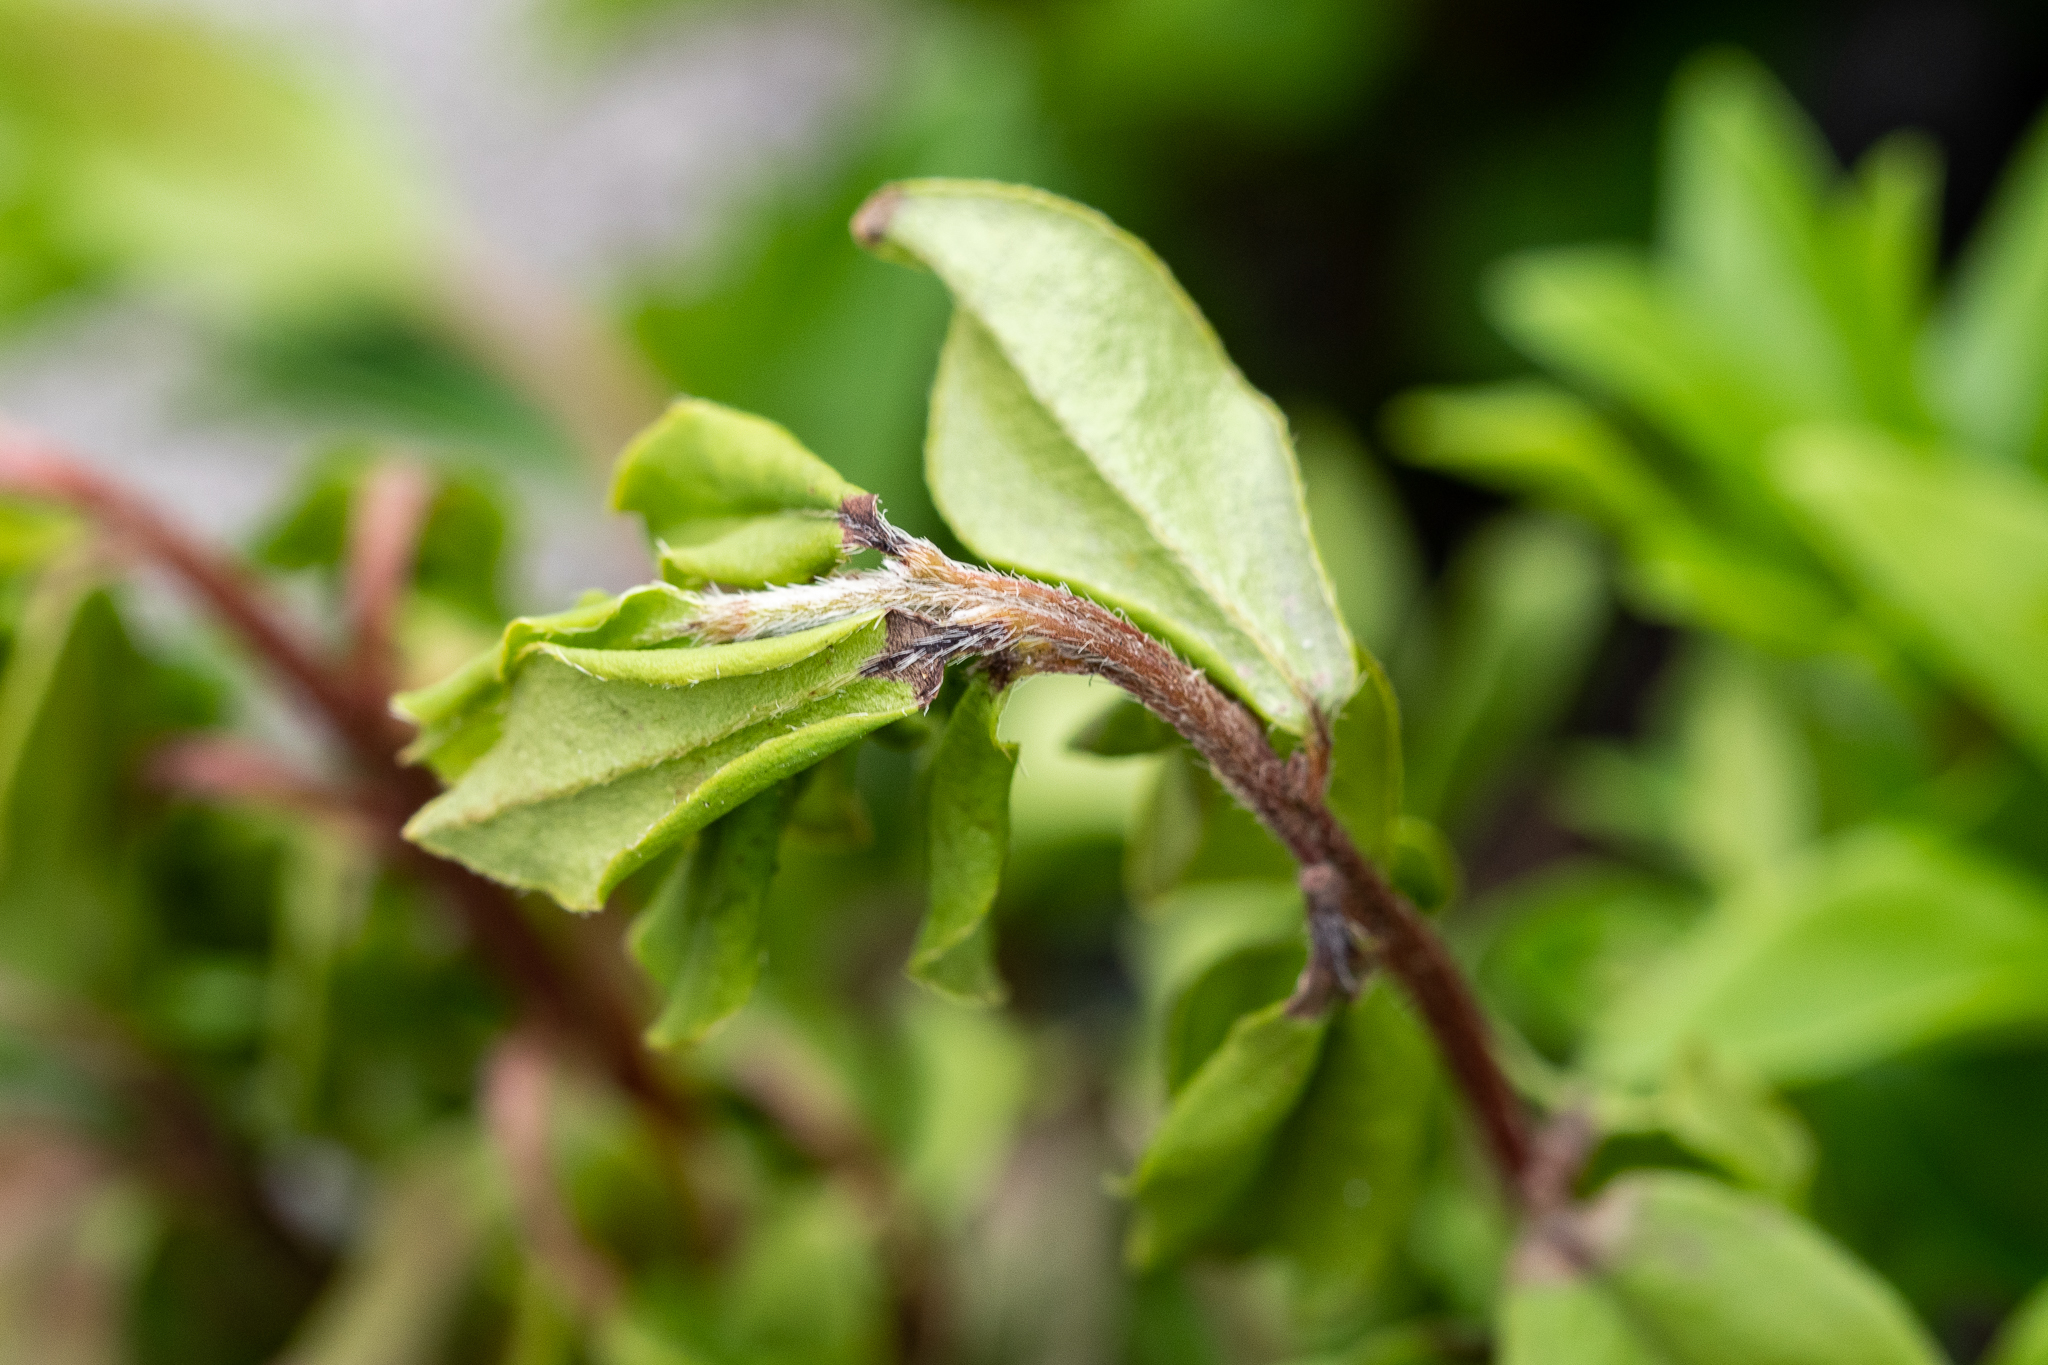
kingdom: Plantae
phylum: Tracheophyta
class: Magnoliopsida
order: Ericales
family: Ebenaceae
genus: Diospyros
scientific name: Diospyros glabra
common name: Fynbos star apple
